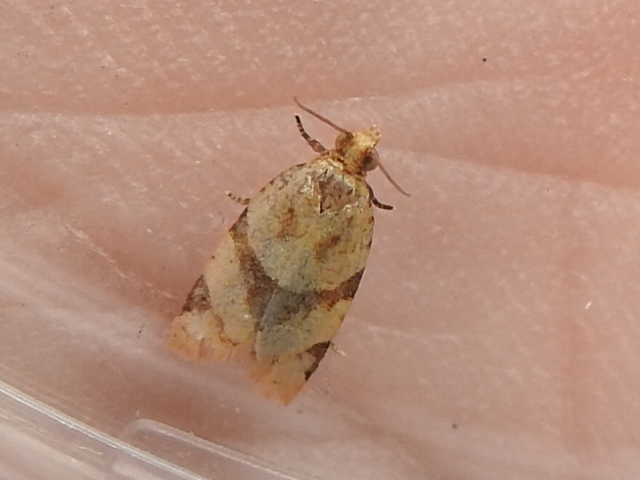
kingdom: Animalia
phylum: Arthropoda
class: Insecta
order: Lepidoptera
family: Tortricidae
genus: Clepsis
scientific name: Clepsis peritana
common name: Garden tortrix
